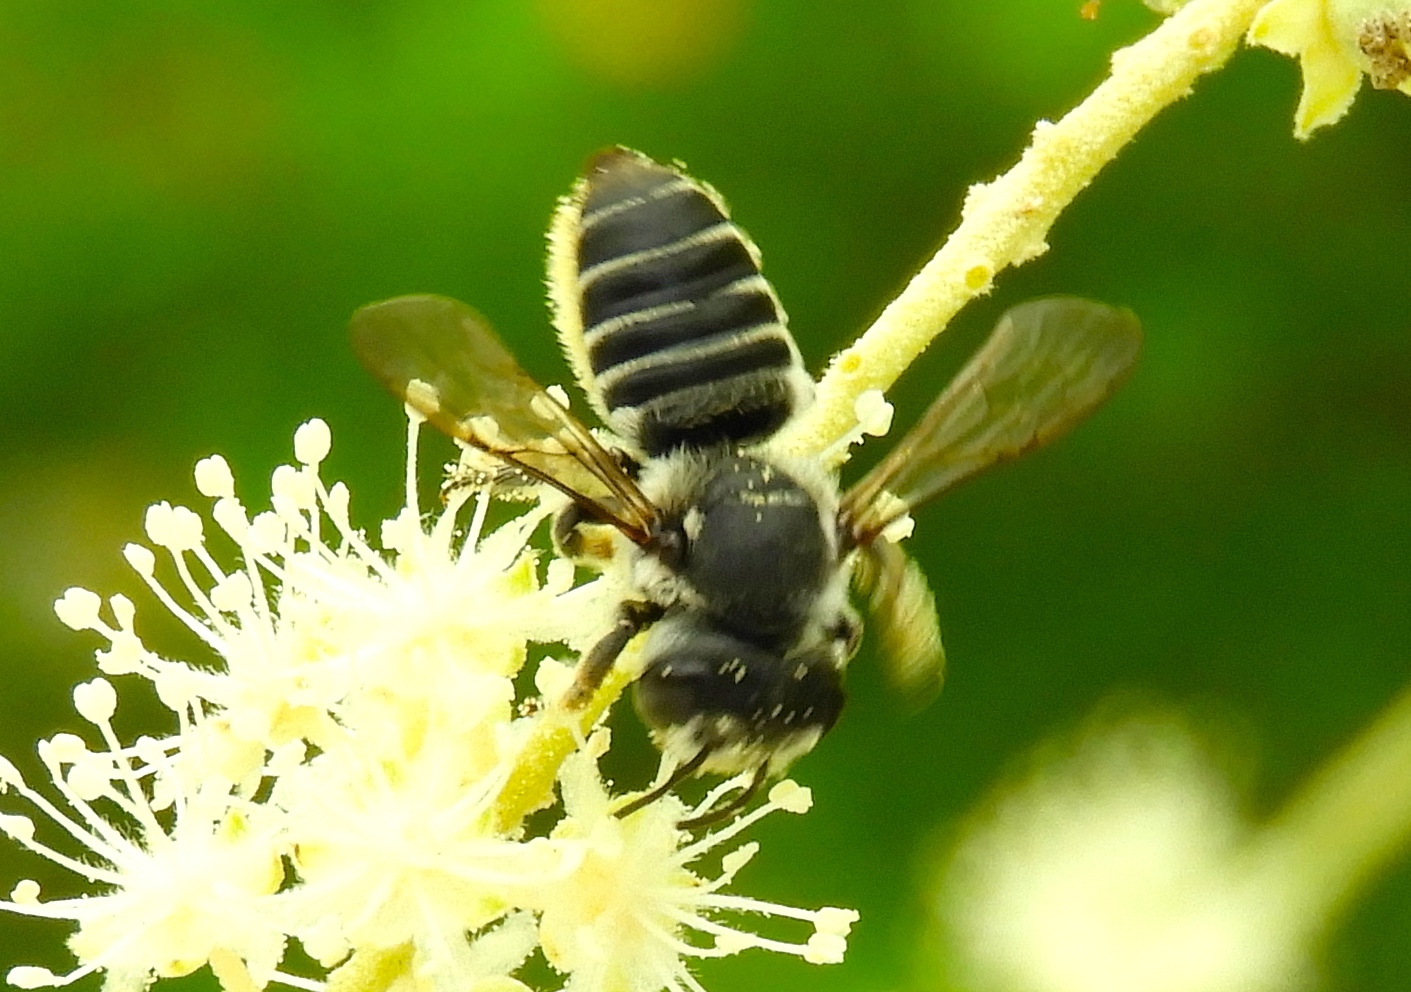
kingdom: Animalia
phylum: Arthropoda
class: Insecta
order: Hymenoptera
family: Megachilidae
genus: Megachile
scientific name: Megachile
